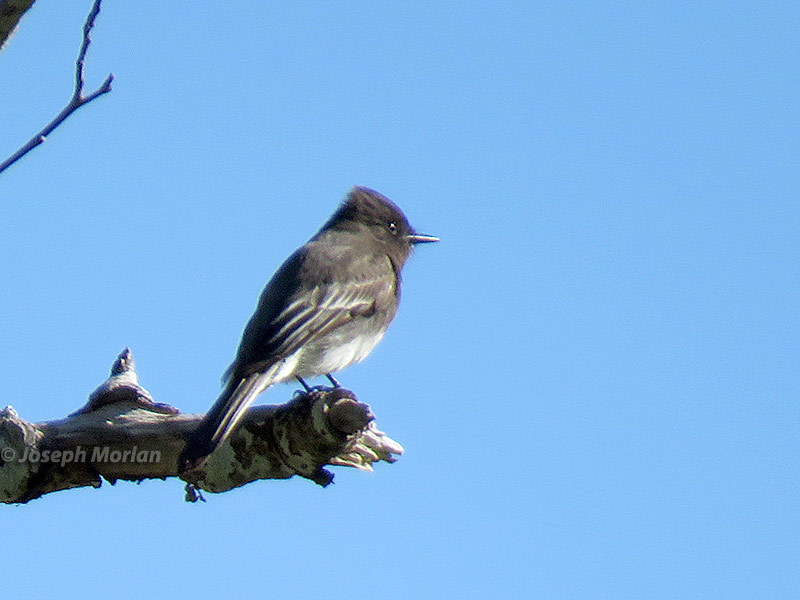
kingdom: Animalia
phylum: Chordata
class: Aves
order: Passeriformes
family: Tyrannidae
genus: Sayornis
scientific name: Sayornis nigricans
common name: Black phoebe
